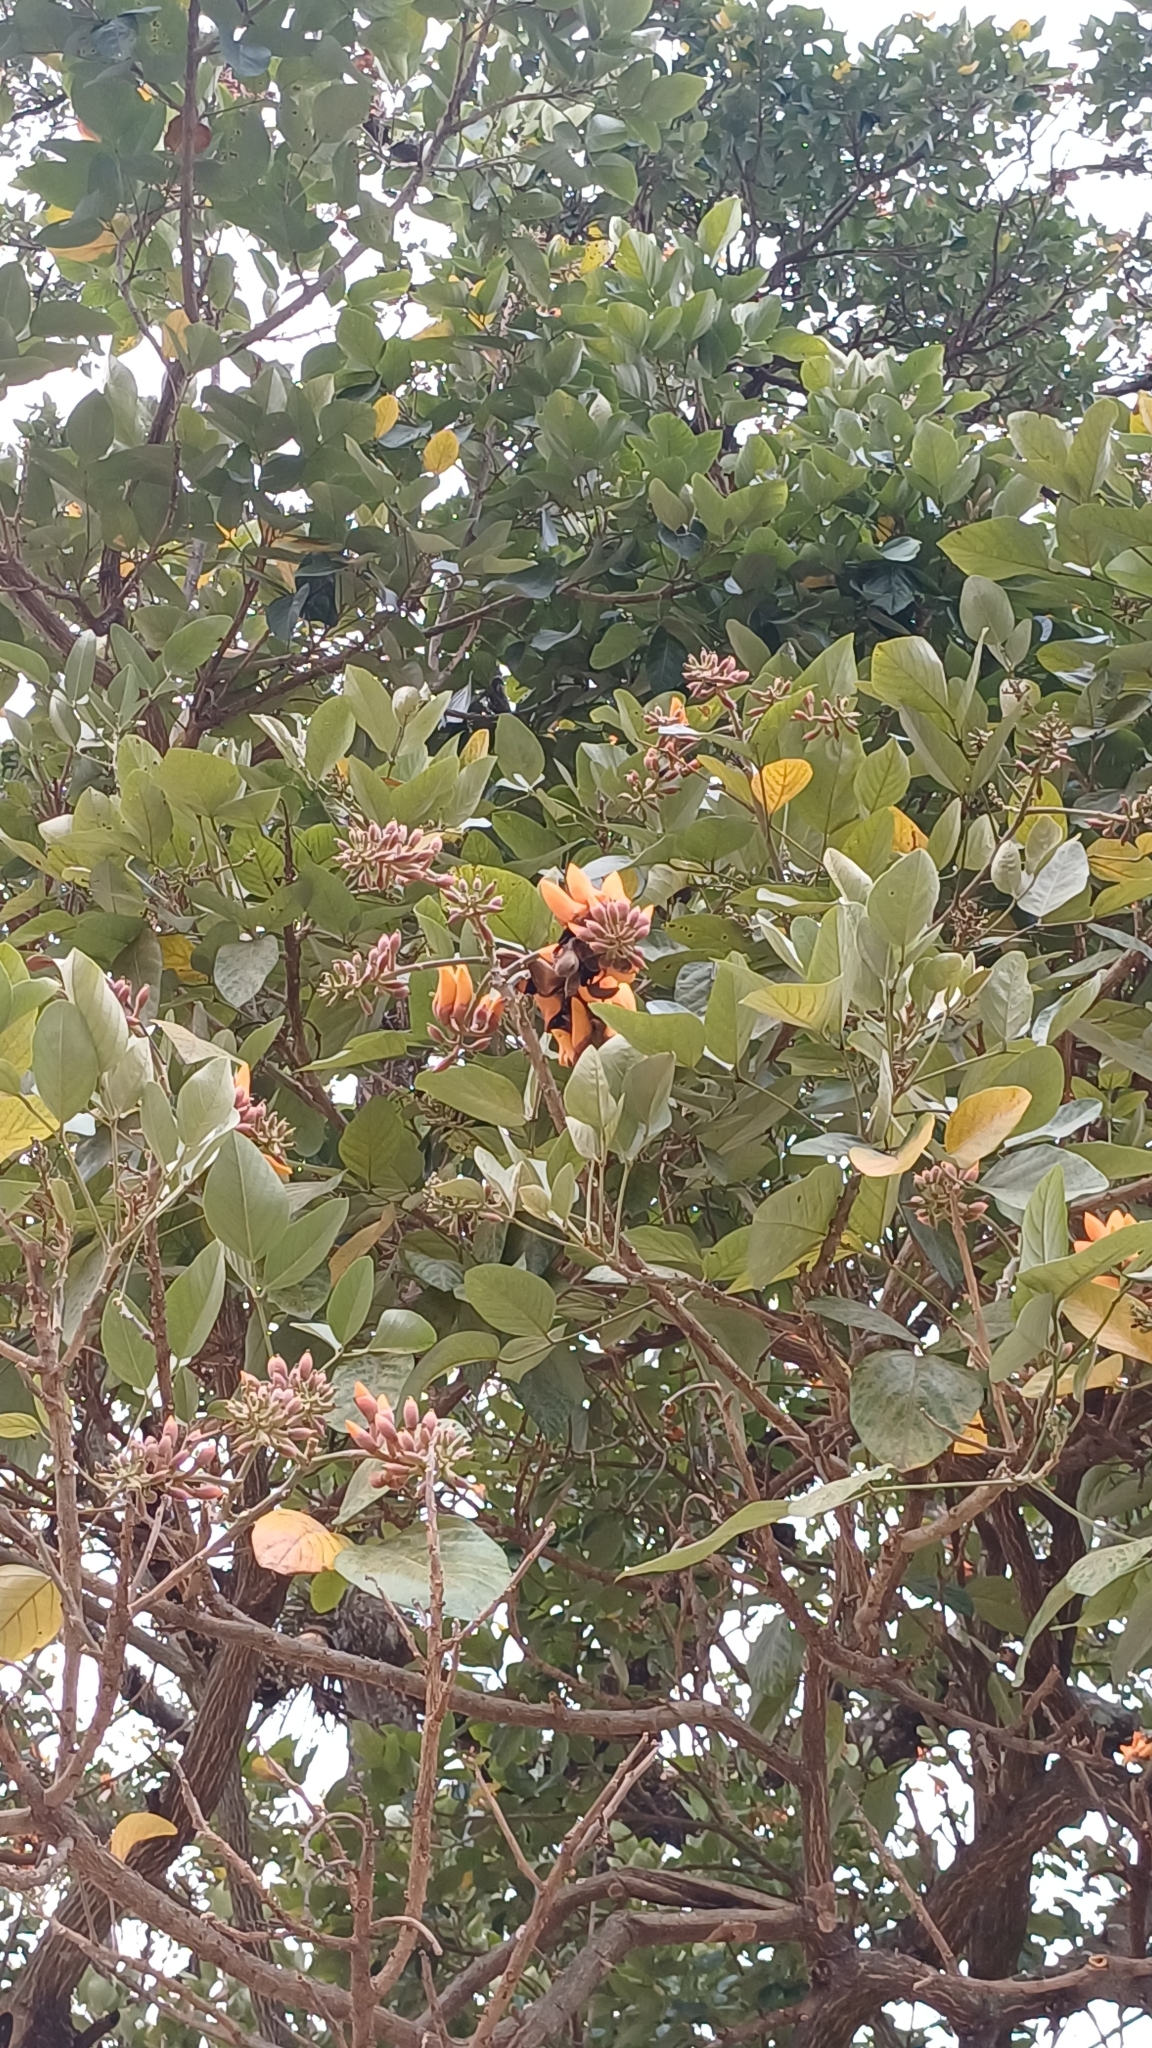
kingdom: Plantae
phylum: Tracheophyta
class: Magnoliopsida
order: Fabales
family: Fabaceae
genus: Erythrina
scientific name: Erythrina fusca
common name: Coral-bean
